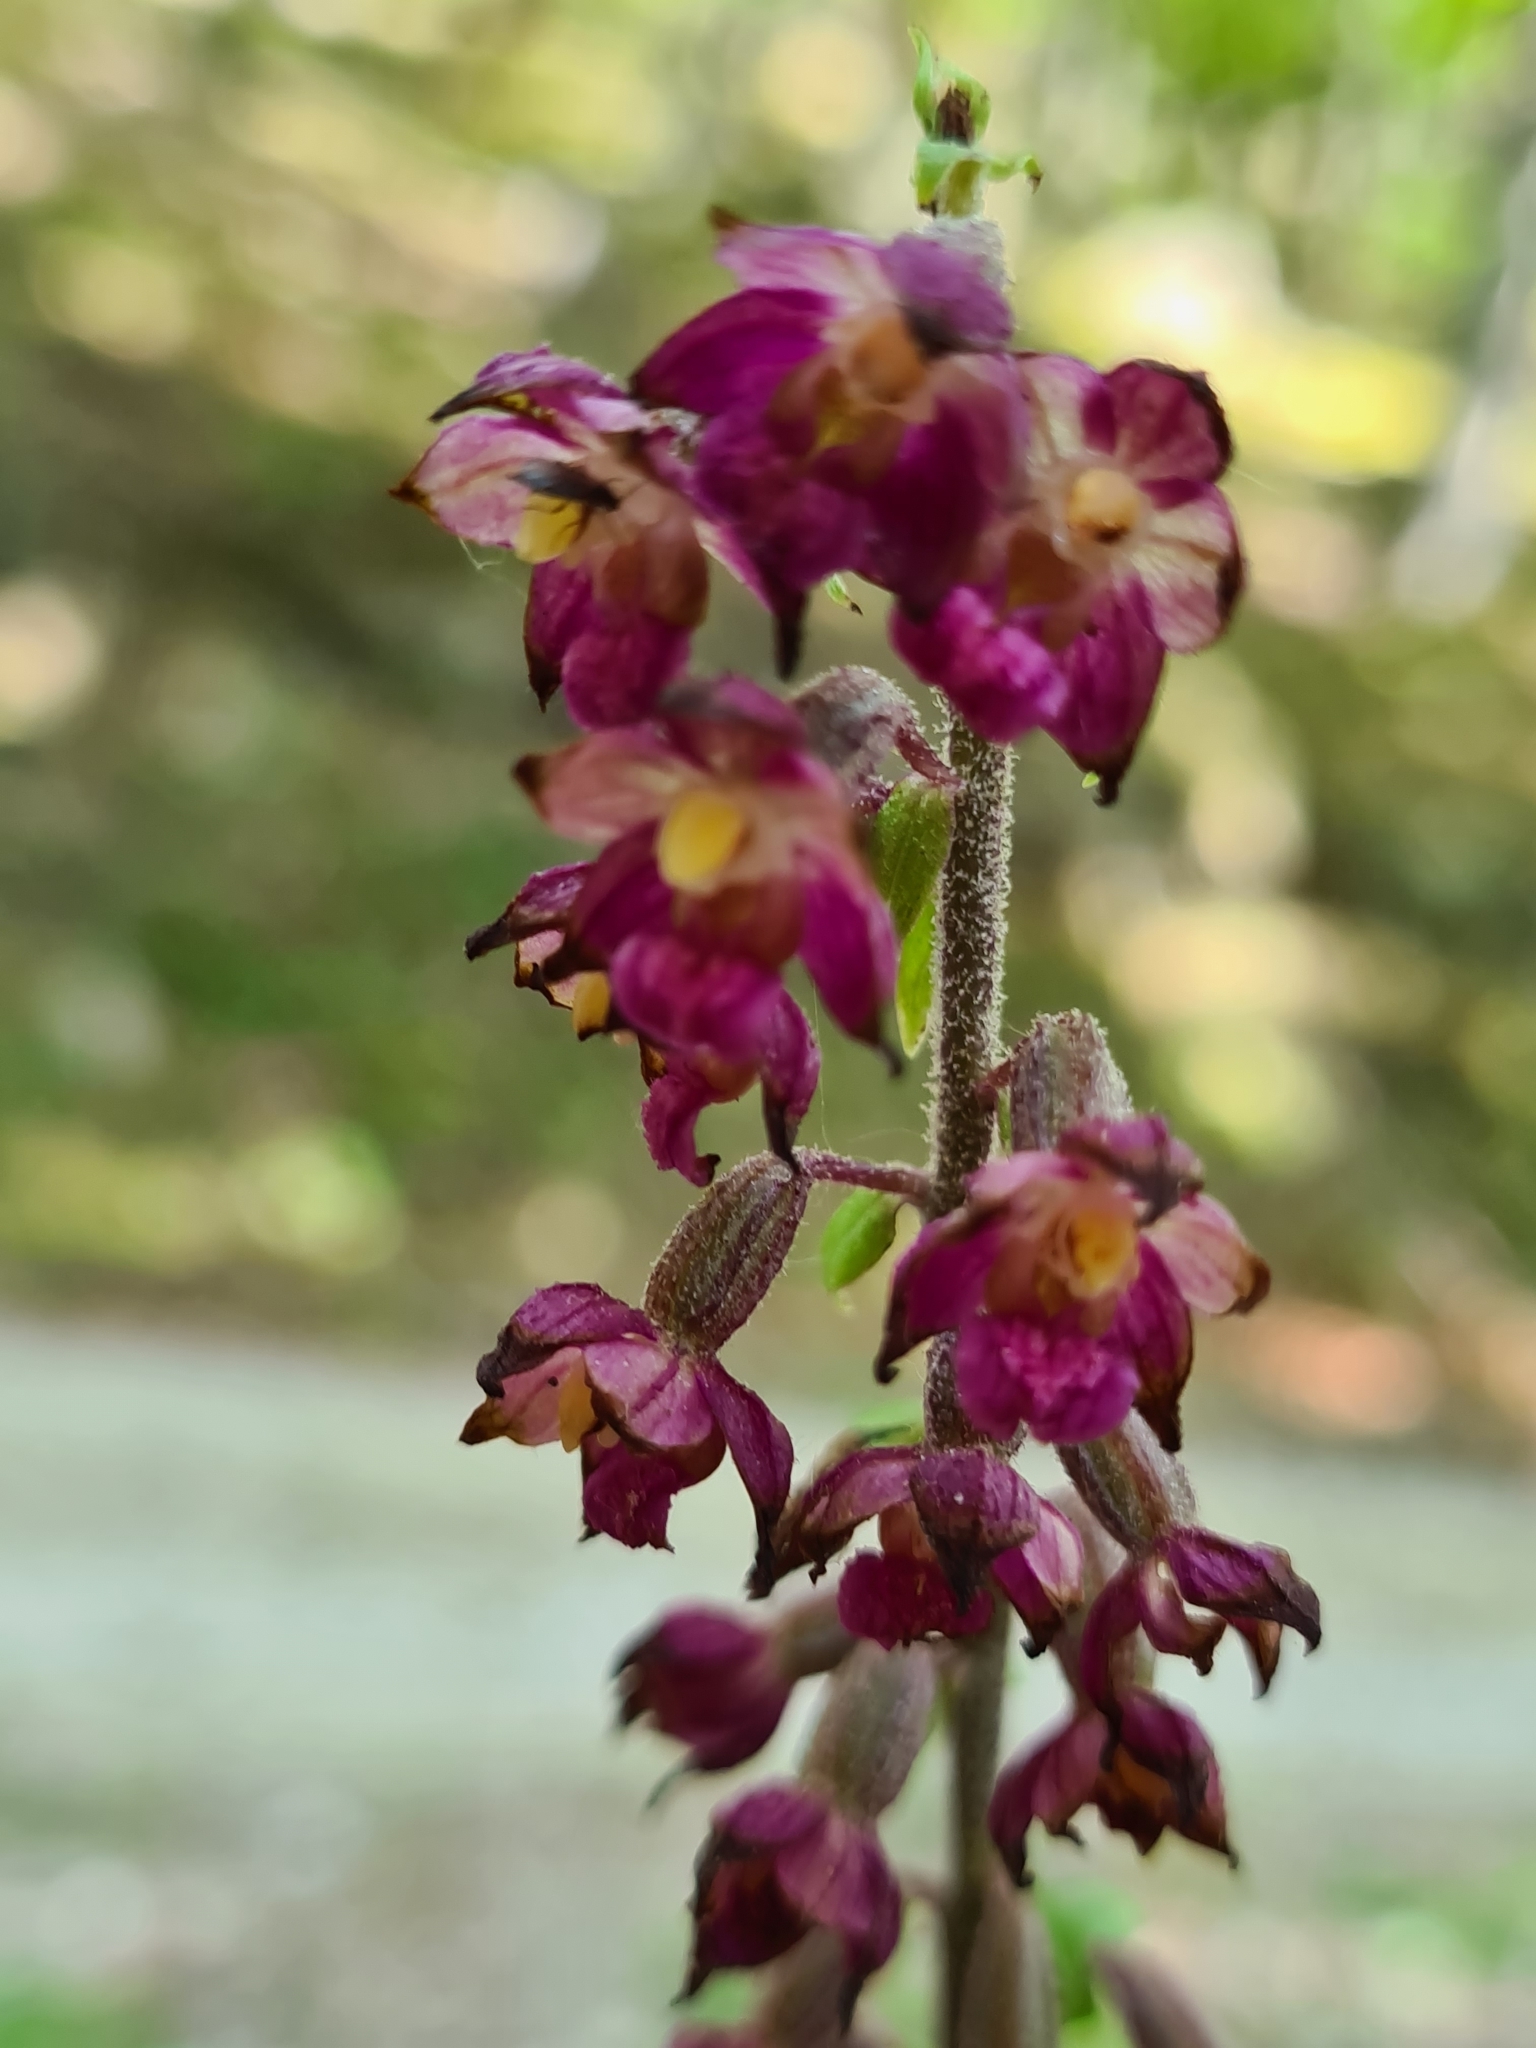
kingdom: Plantae
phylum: Tracheophyta
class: Liliopsida
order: Asparagales
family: Orchidaceae
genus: Epipactis
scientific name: Epipactis atrorubens
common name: Dark-red helleborine
